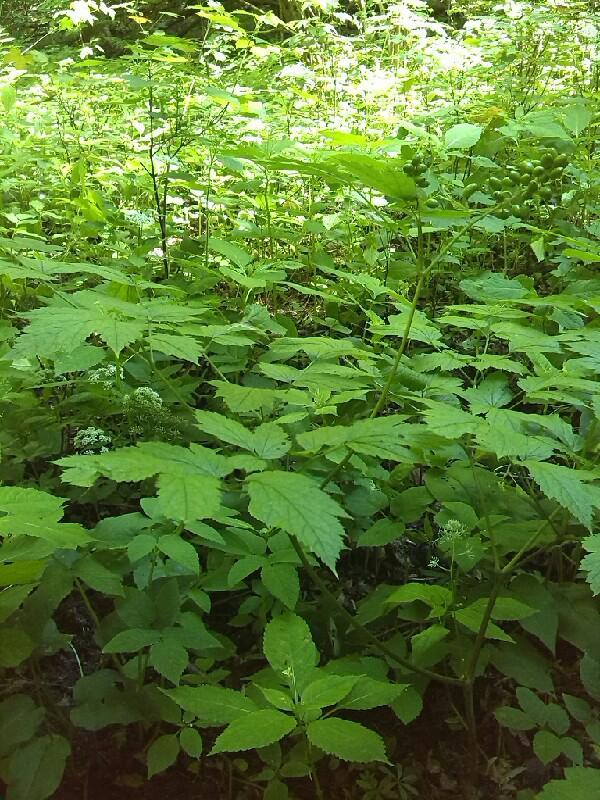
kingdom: Plantae
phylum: Tracheophyta
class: Magnoliopsida
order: Ranunculales
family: Ranunculaceae
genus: Actaea
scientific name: Actaea spicata
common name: Baneberry
